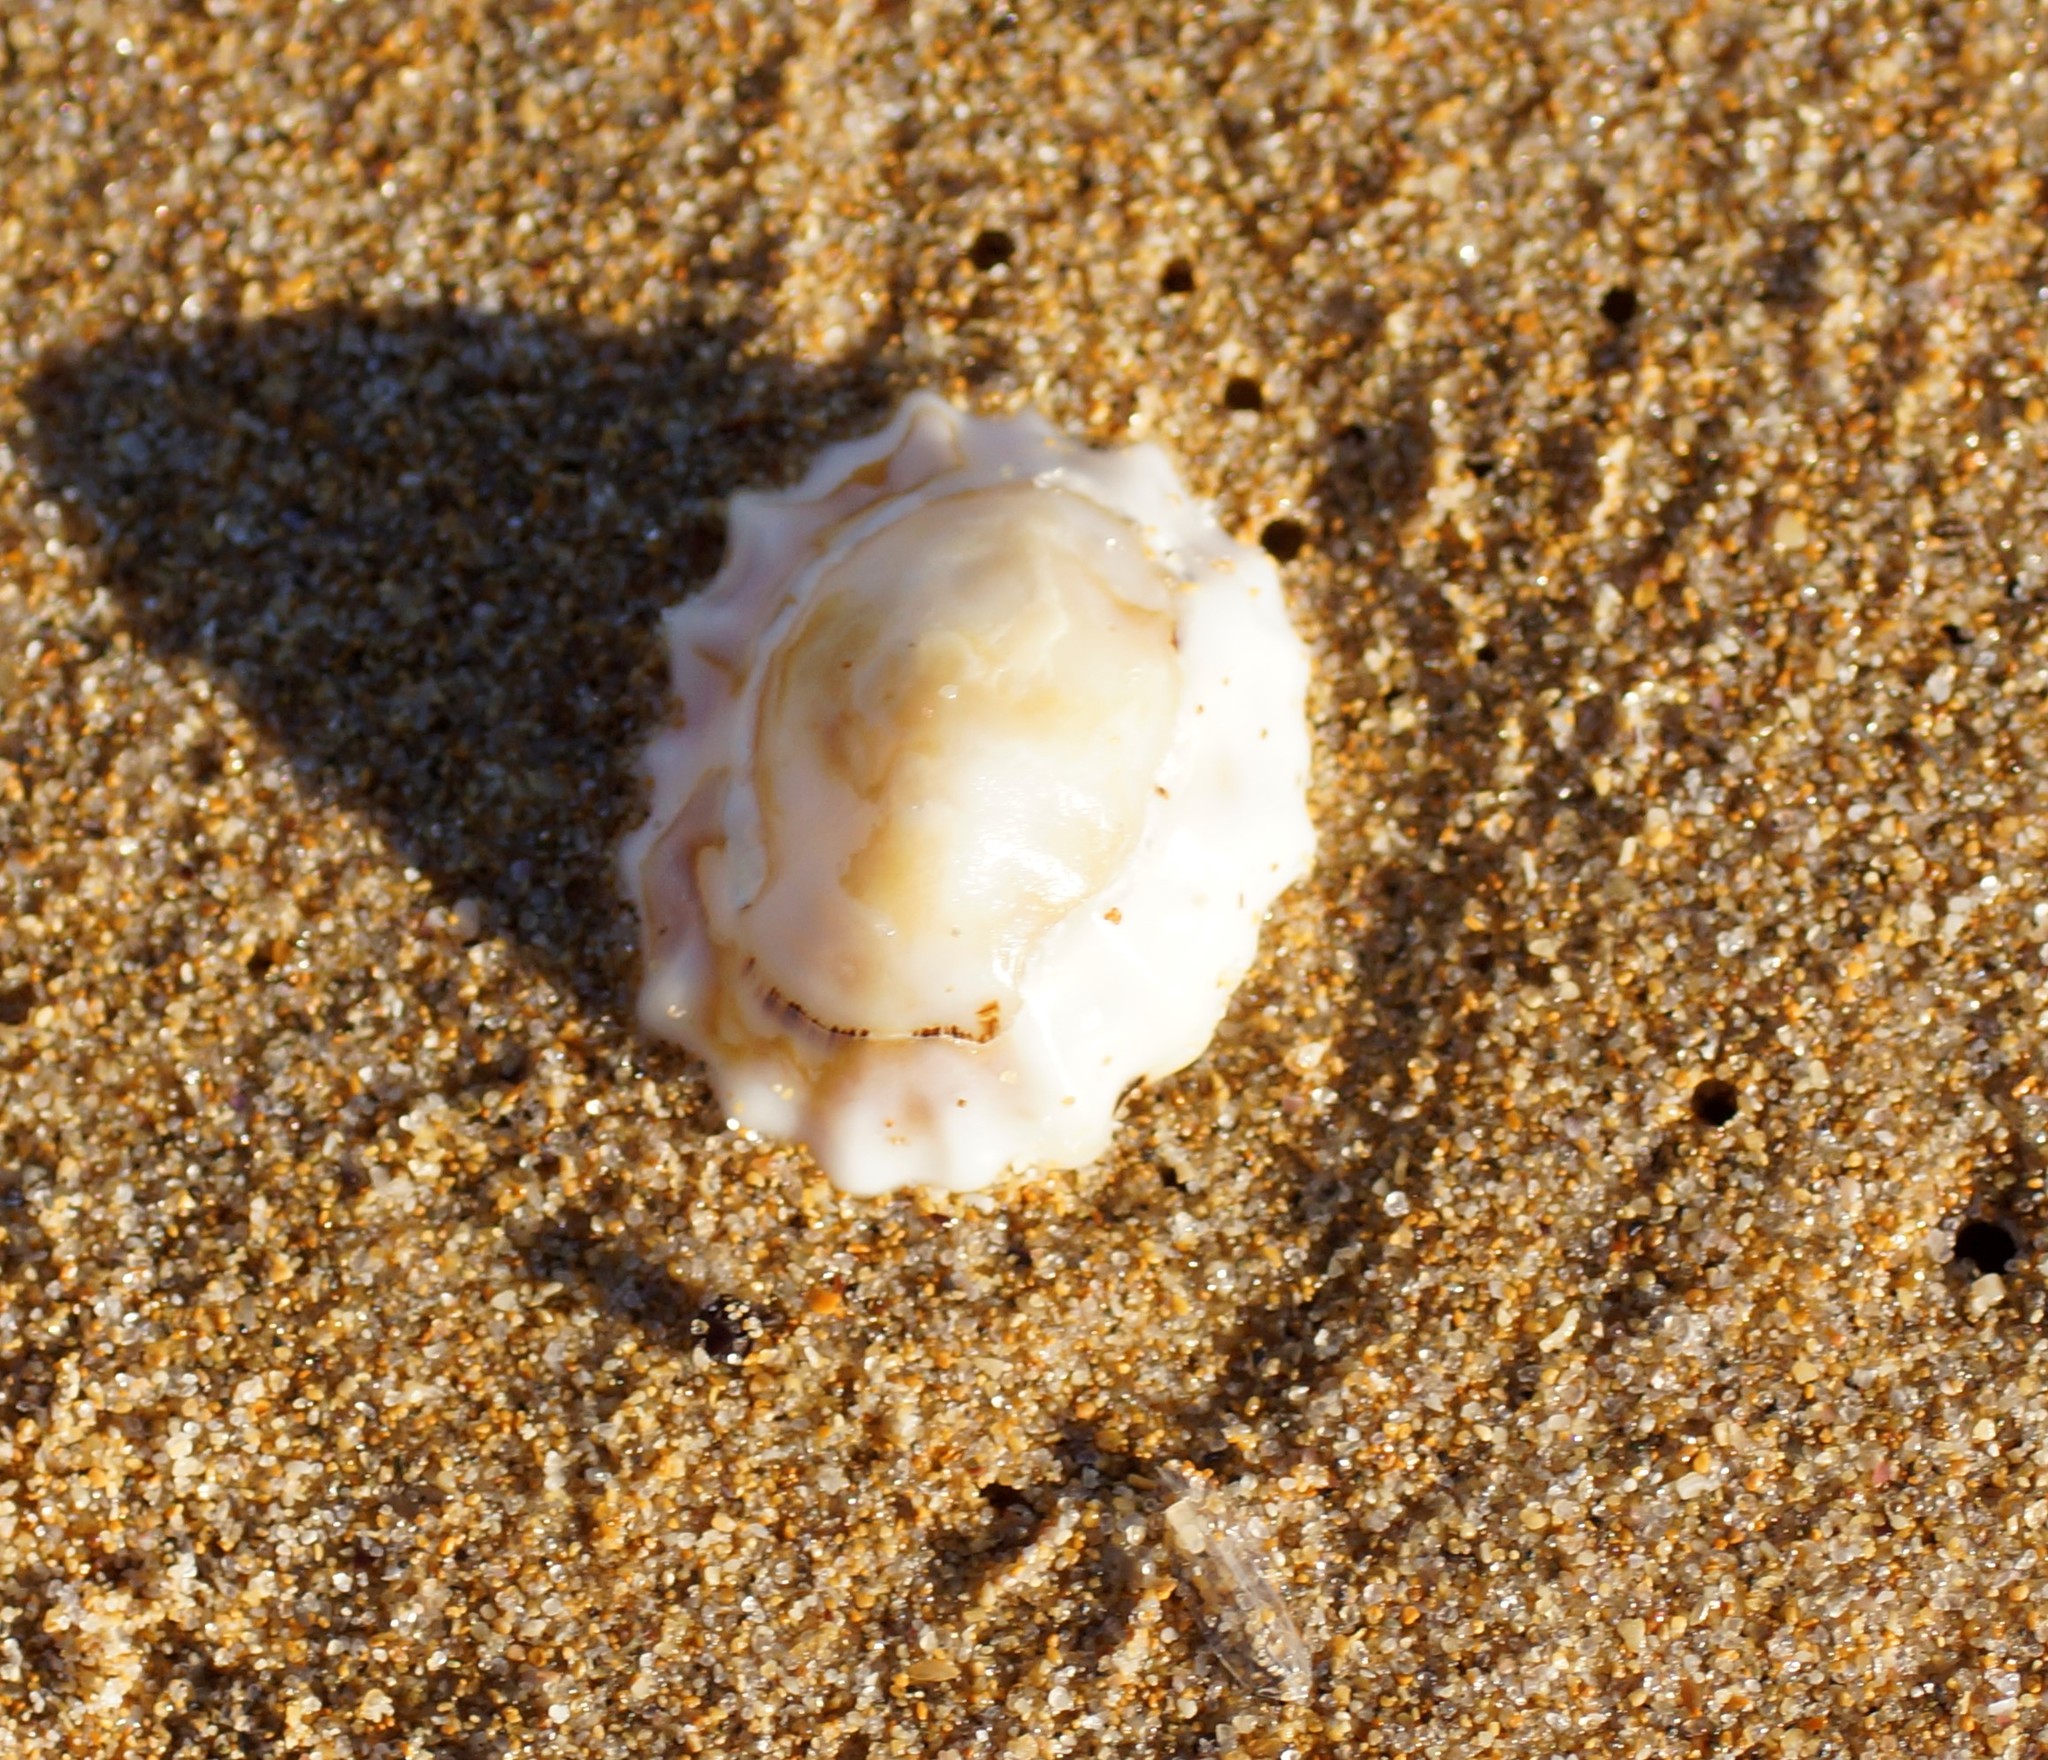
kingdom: Animalia
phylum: Mollusca
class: Gastropoda
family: Lottiidae
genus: Patelloida
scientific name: Patelloida alticostata
